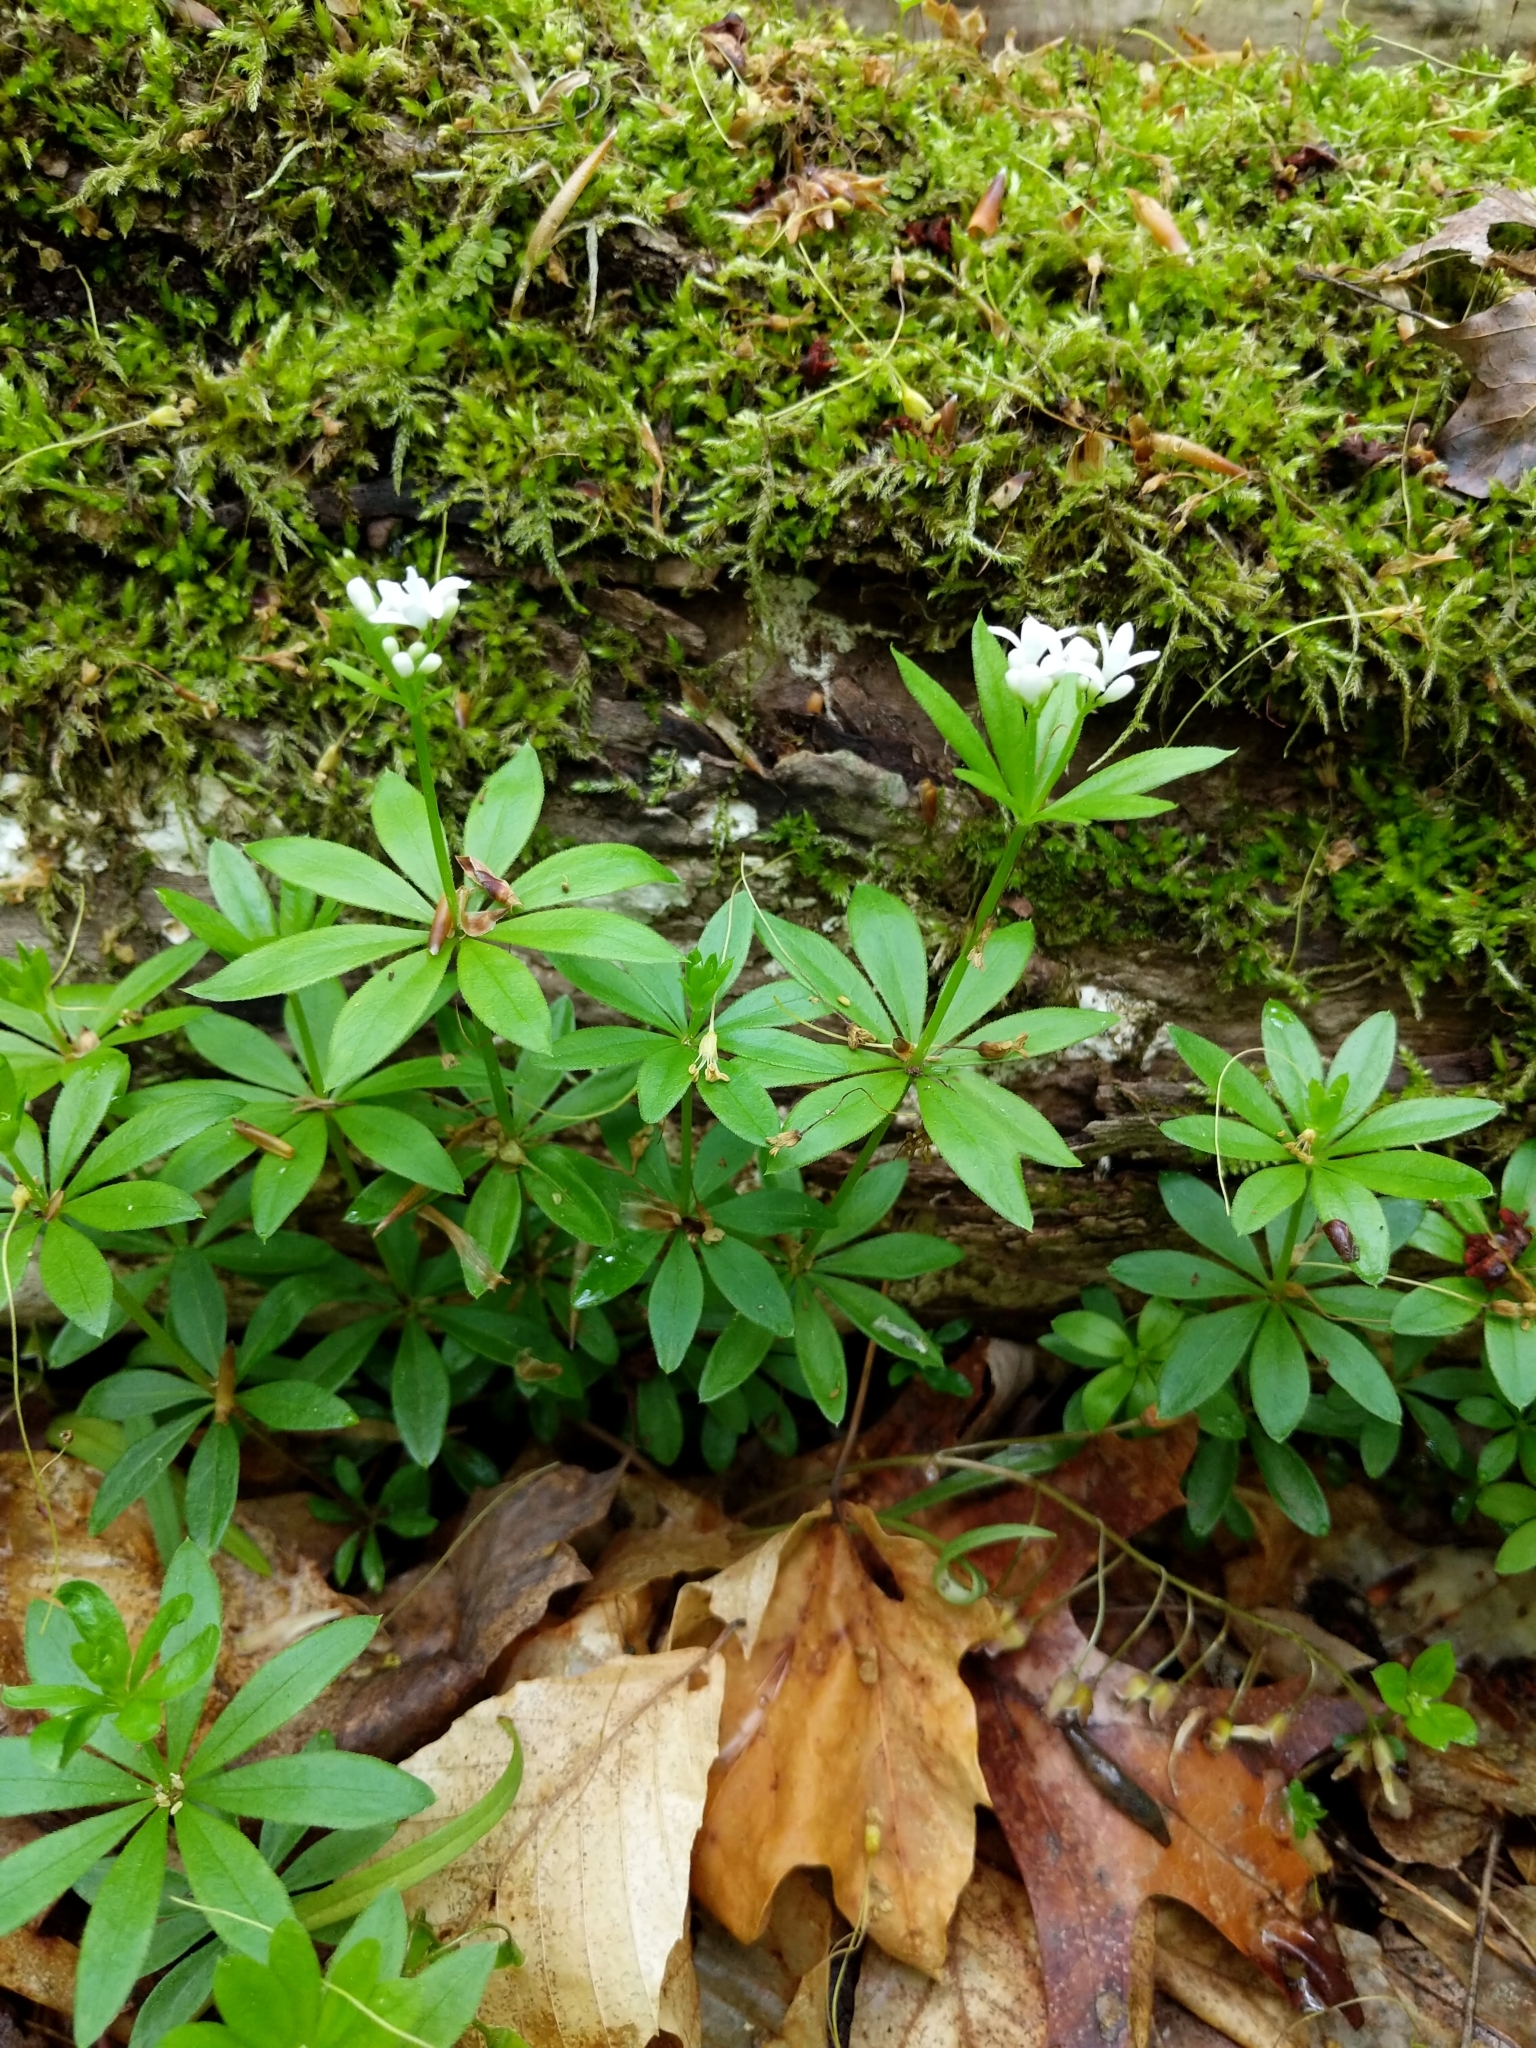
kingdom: Plantae
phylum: Tracheophyta
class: Magnoliopsida
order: Gentianales
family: Rubiaceae
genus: Galium
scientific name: Galium odoratum
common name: Sweet woodruff
